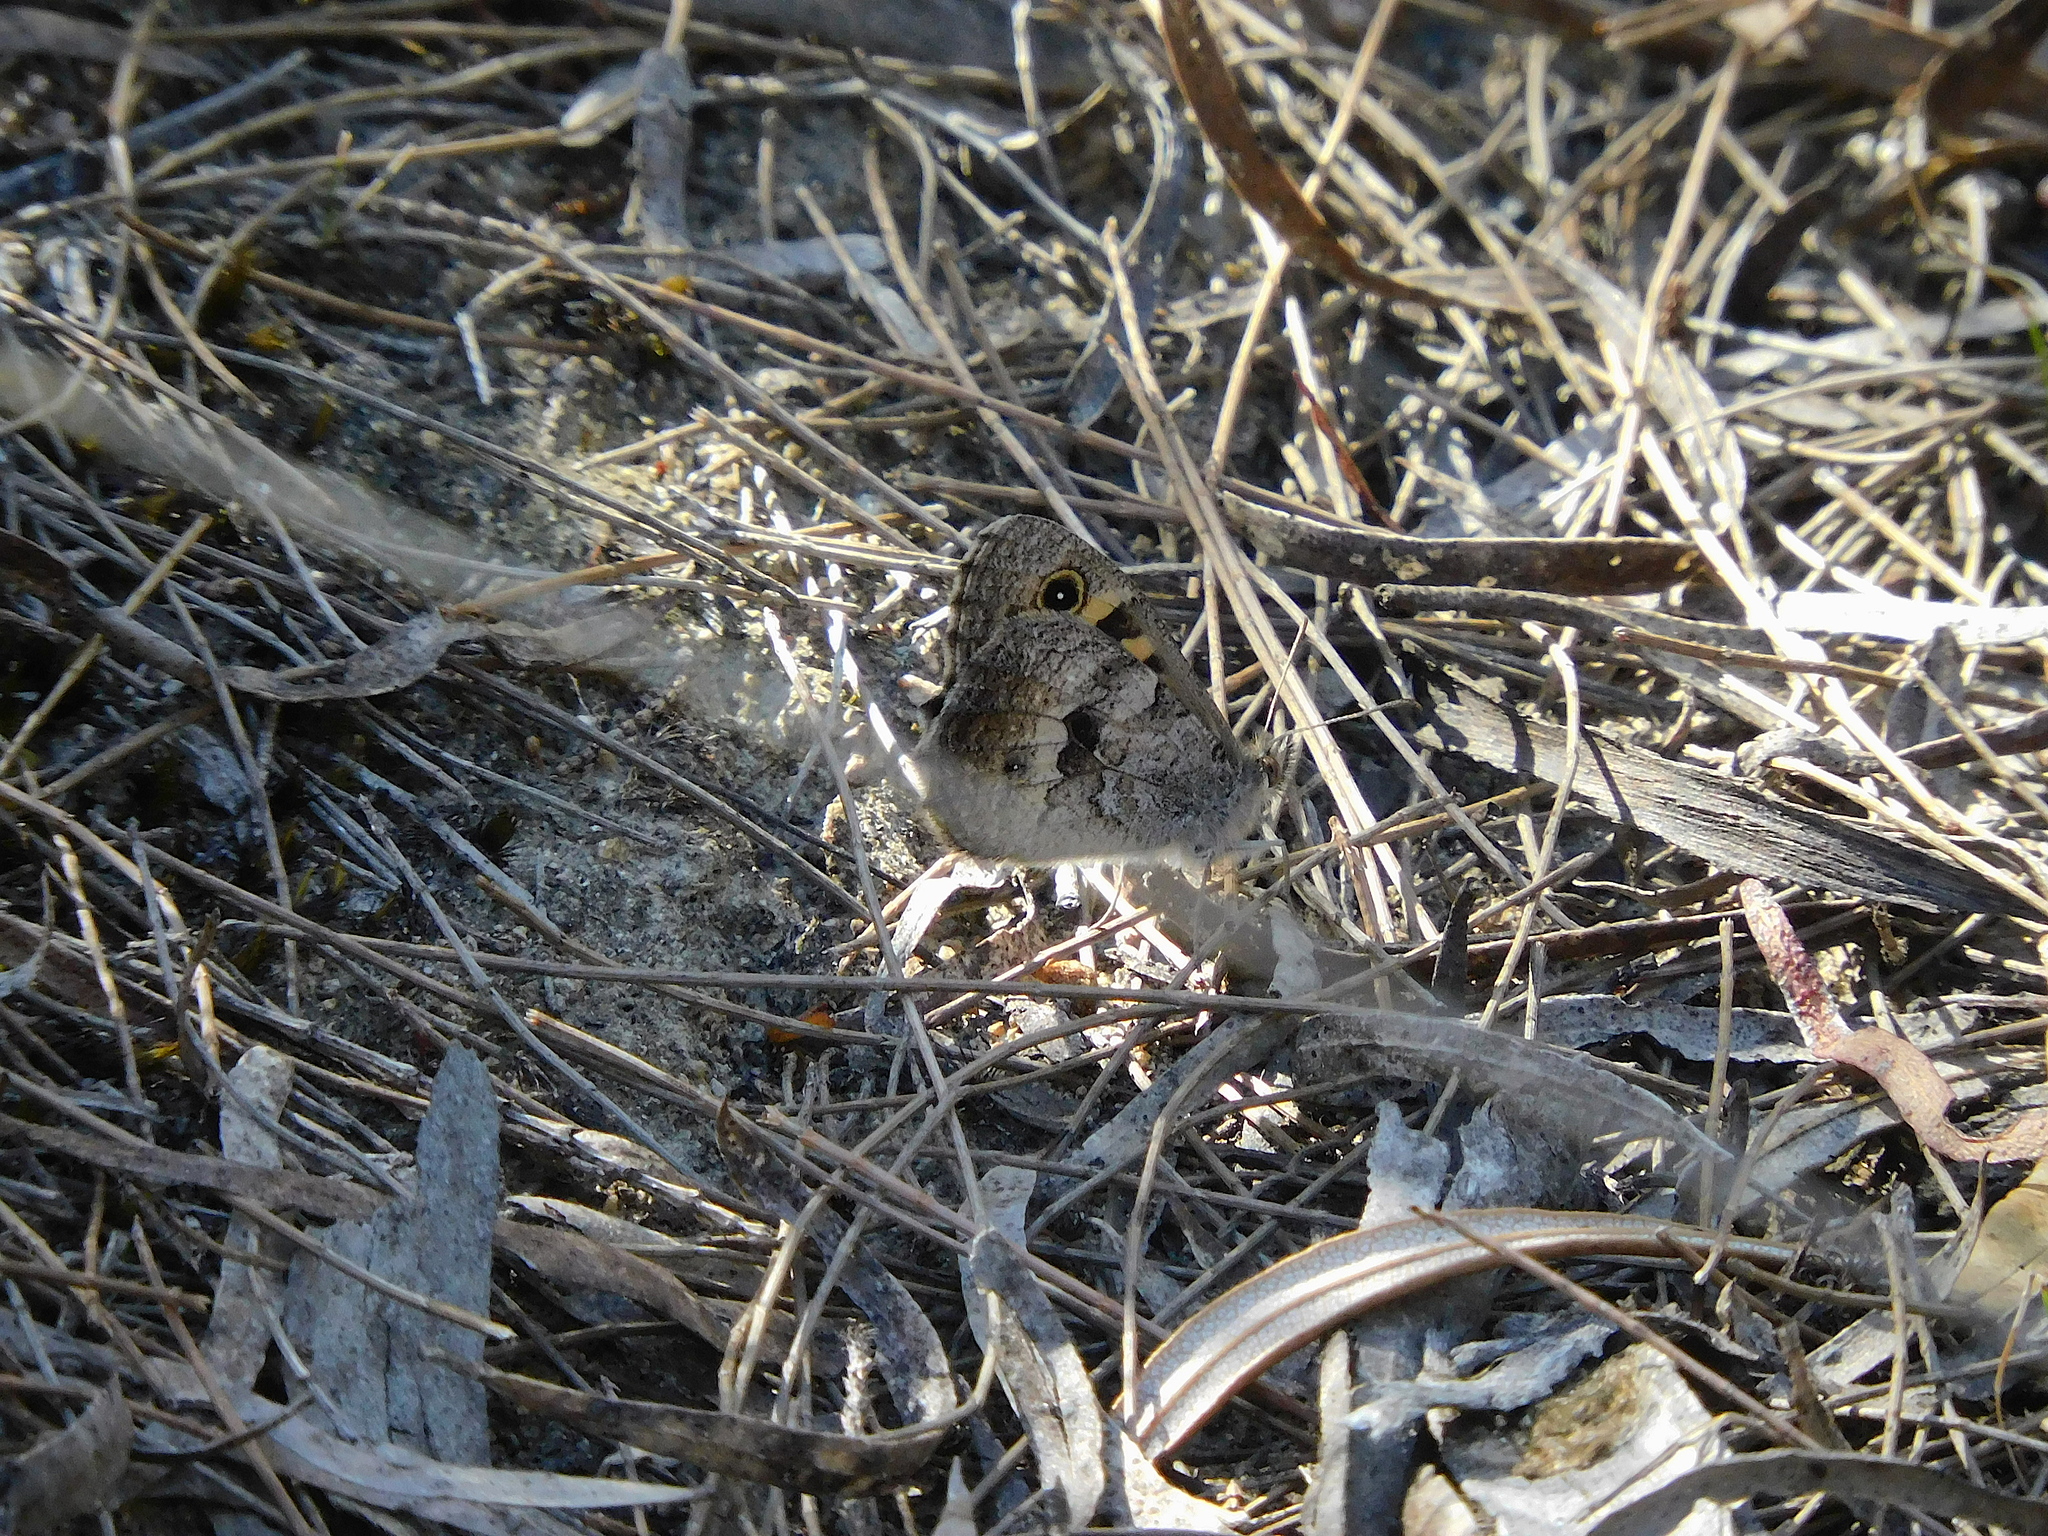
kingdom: Animalia
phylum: Arthropoda
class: Insecta
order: Lepidoptera
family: Nymphalidae
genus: Geitoneura
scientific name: Geitoneura klugii
